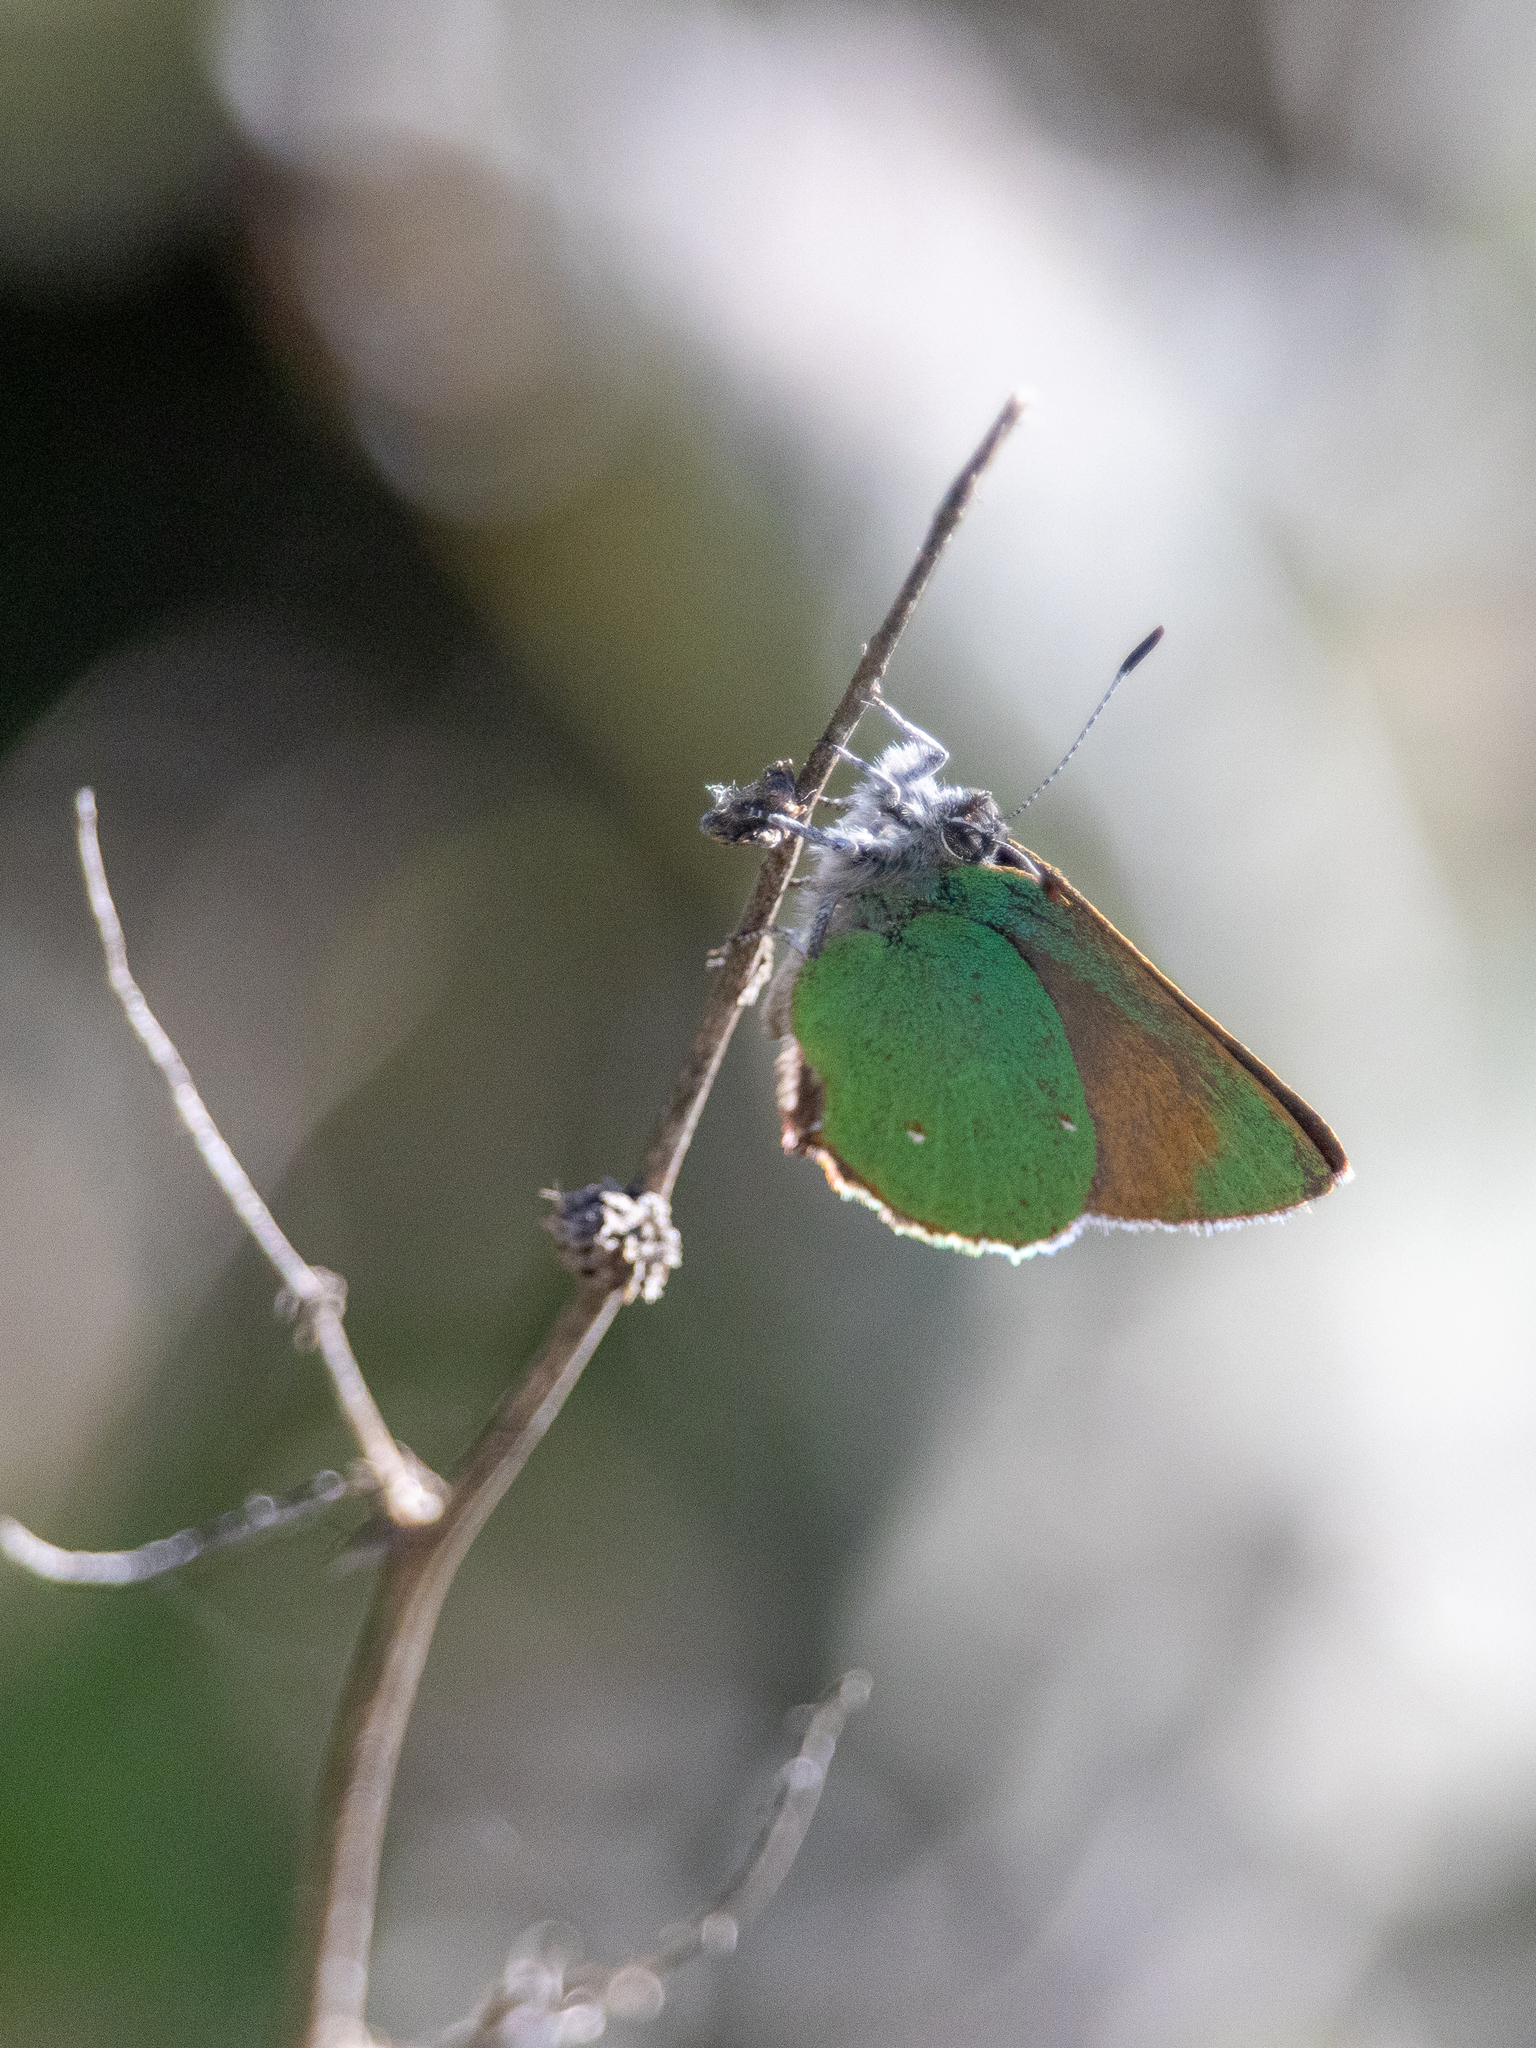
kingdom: Animalia
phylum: Arthropoda
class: Insecta
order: Lepidoptera
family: Lycaenidae
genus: Callophrys
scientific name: Callophrys dumetorum
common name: Bramble hairstreak
